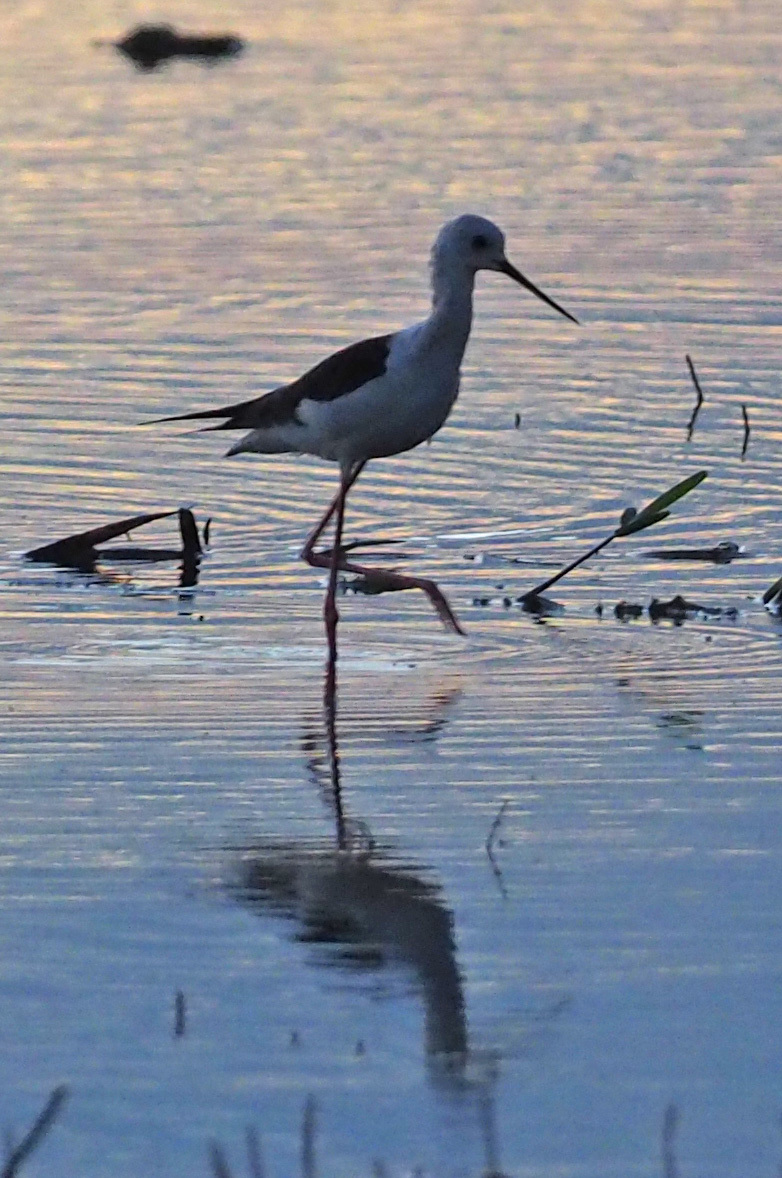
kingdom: Animalia
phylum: Chordata
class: Aves
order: Charadriiformes
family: Recurvirostridae
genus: Himantopus
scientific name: Himantopus himantopus
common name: Black-winged stilt
